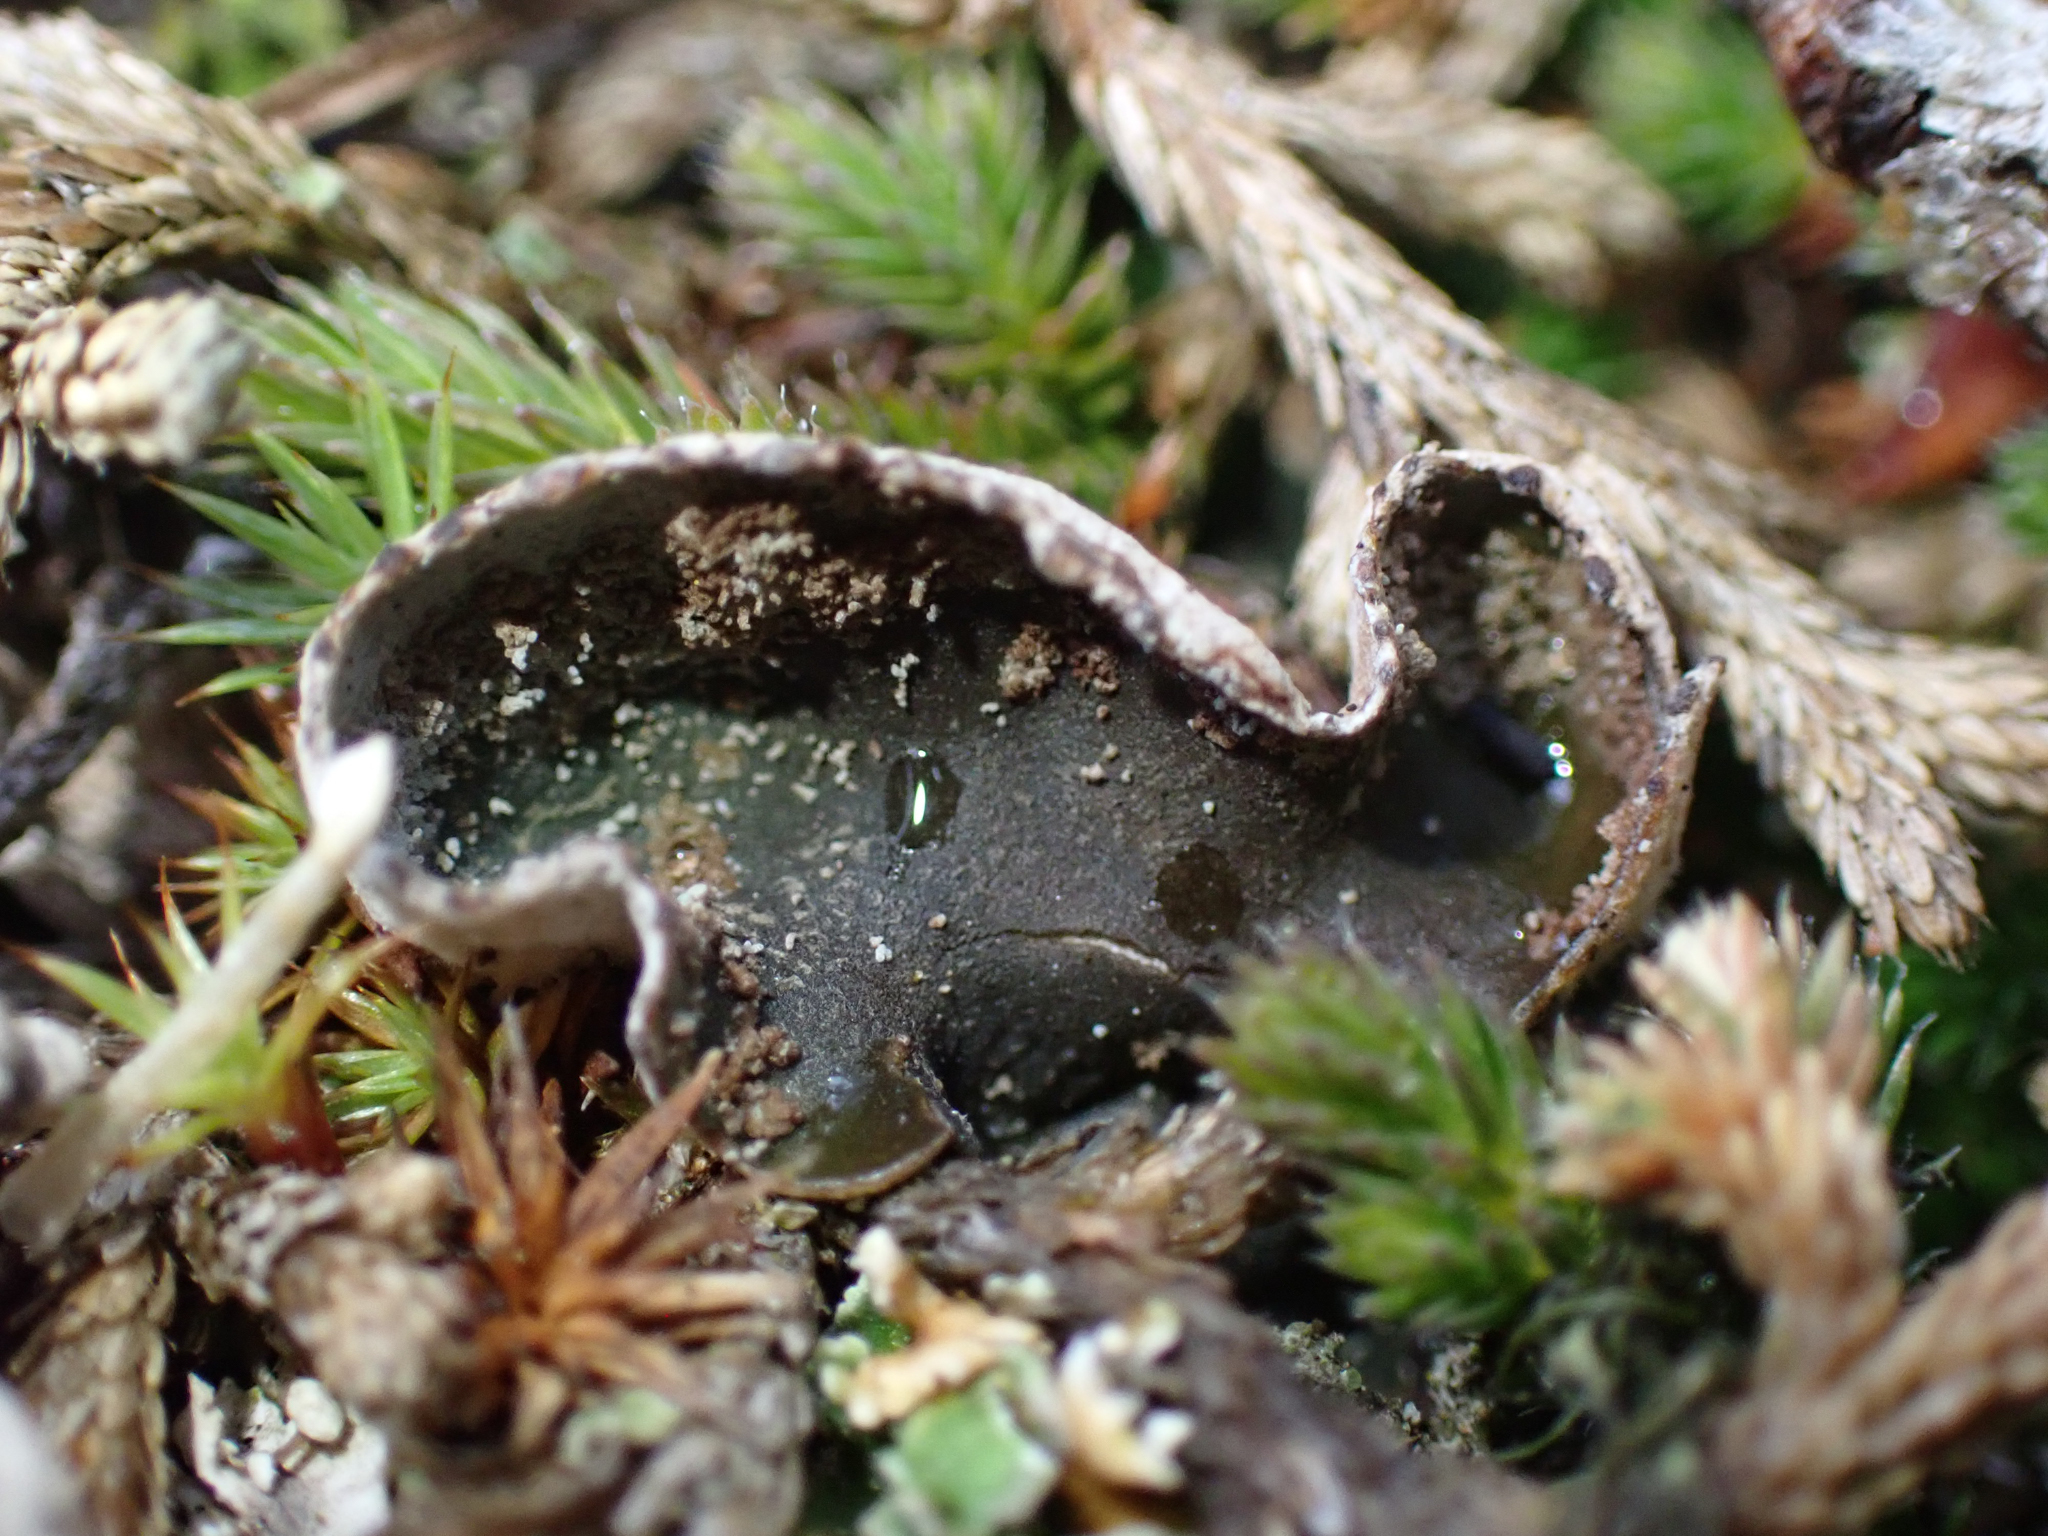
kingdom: Fungi
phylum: Ascomycota
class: Lecanoromycetes
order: Peltigerales
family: Peltigeraceae
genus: Peltigera
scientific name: Peltigera didactyla
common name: Alternating dog lichen
